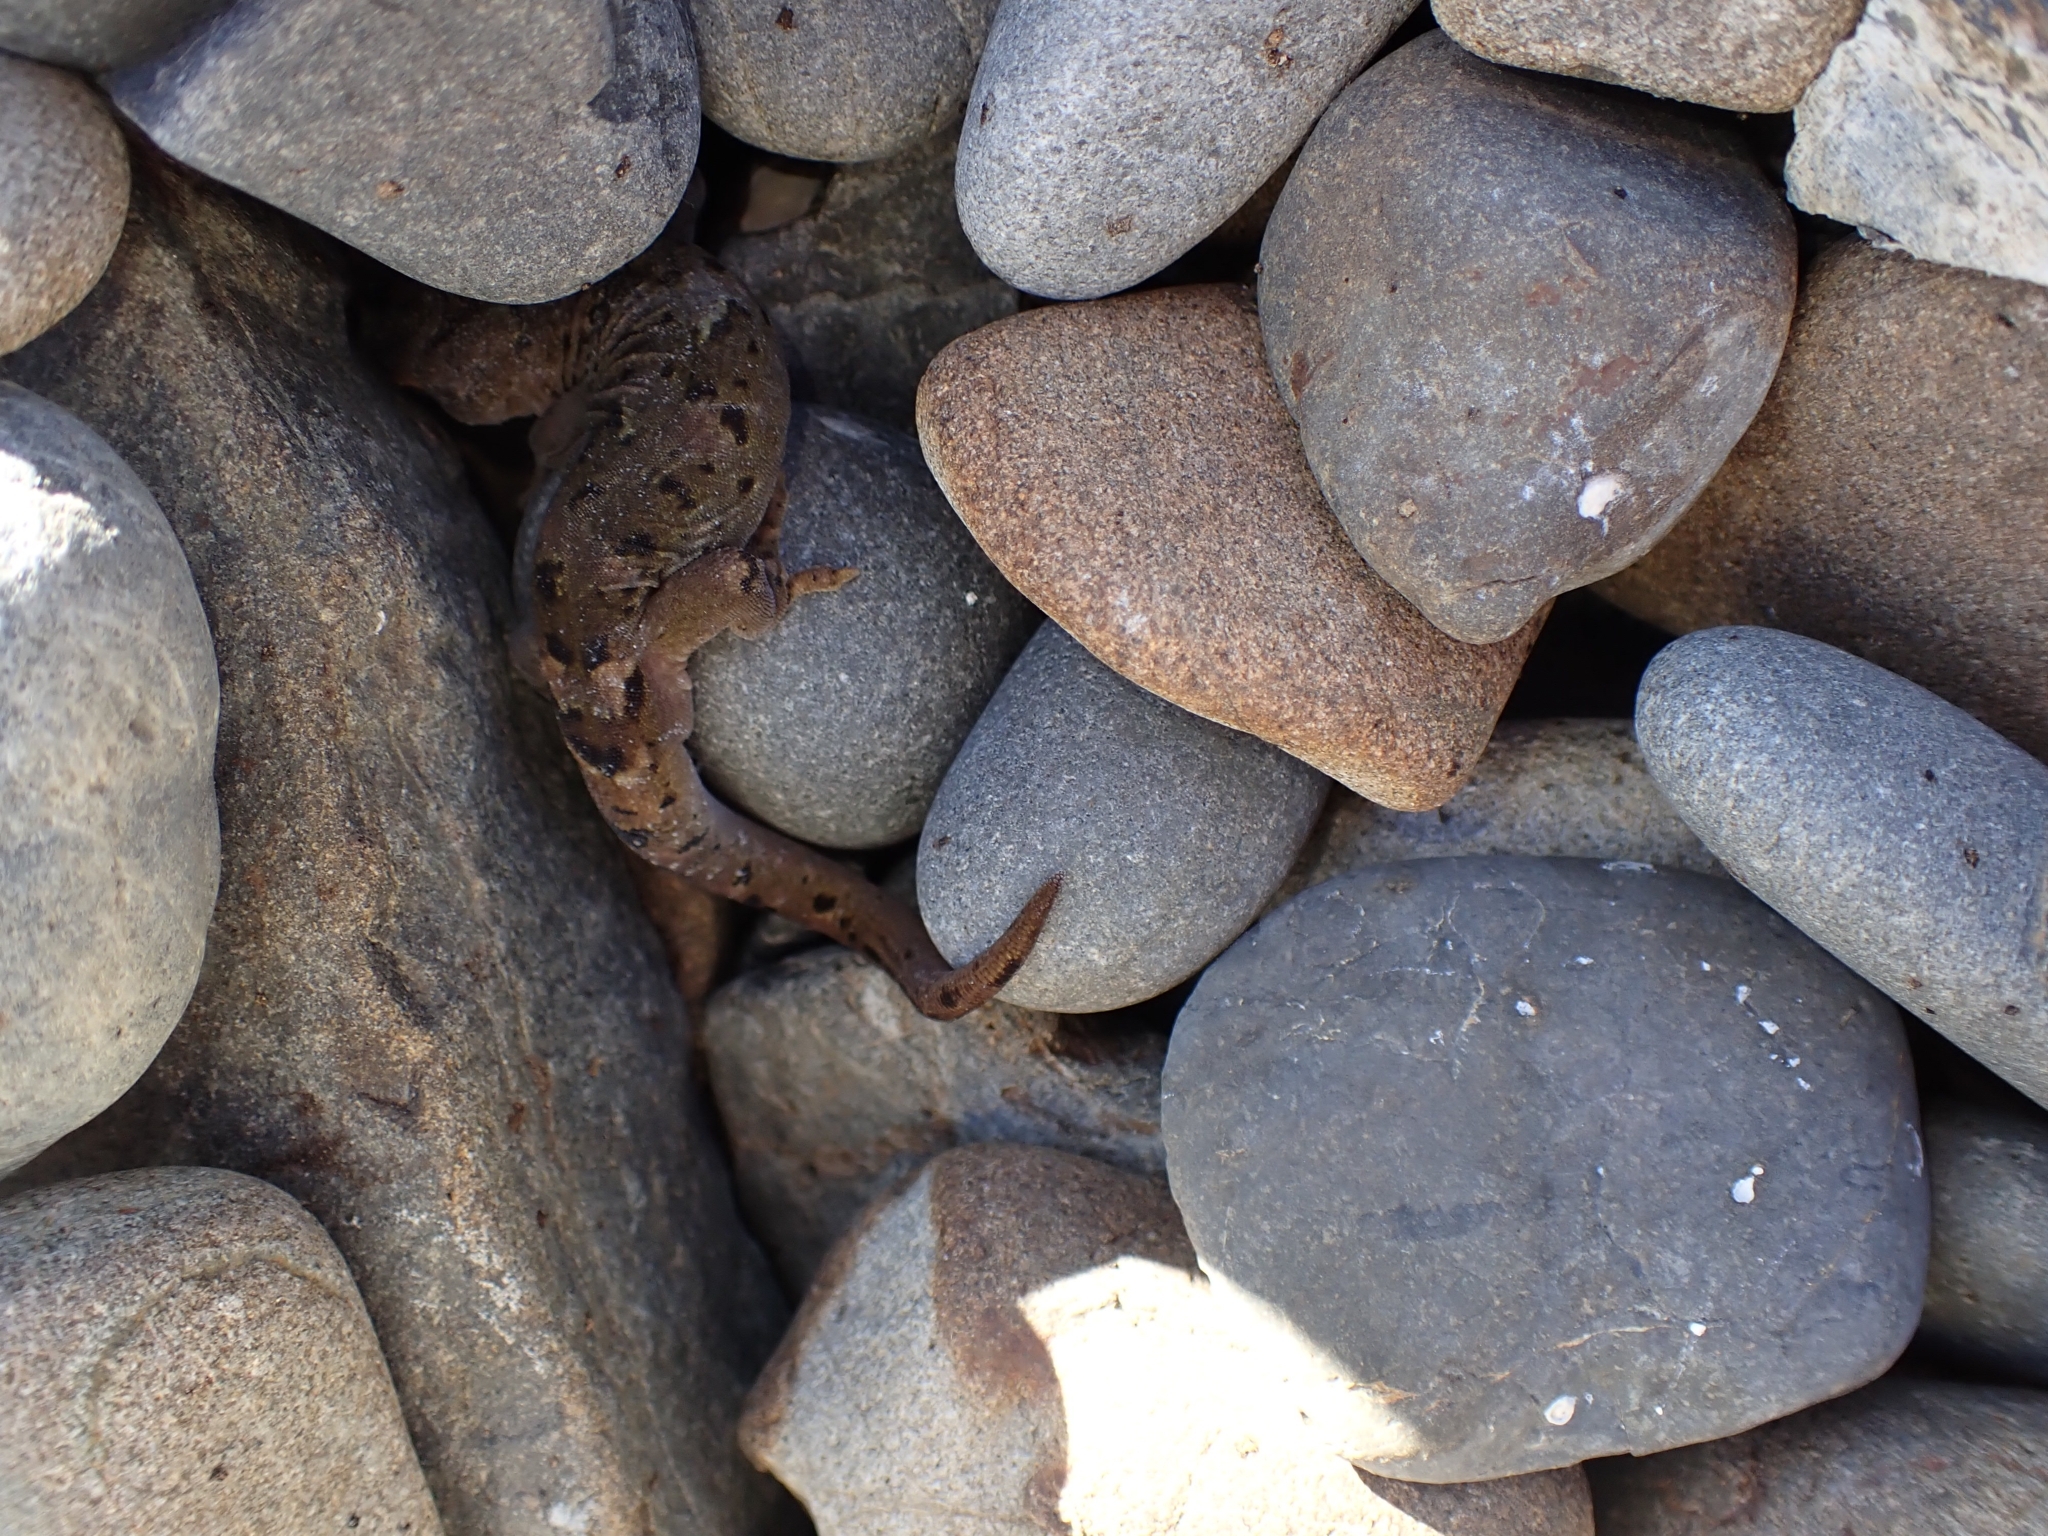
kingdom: Animalia
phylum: Chordata
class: Squamata
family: Diplodactylidae
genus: Woodworthia
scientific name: Woodworthia maculata
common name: Raukawa gecko
